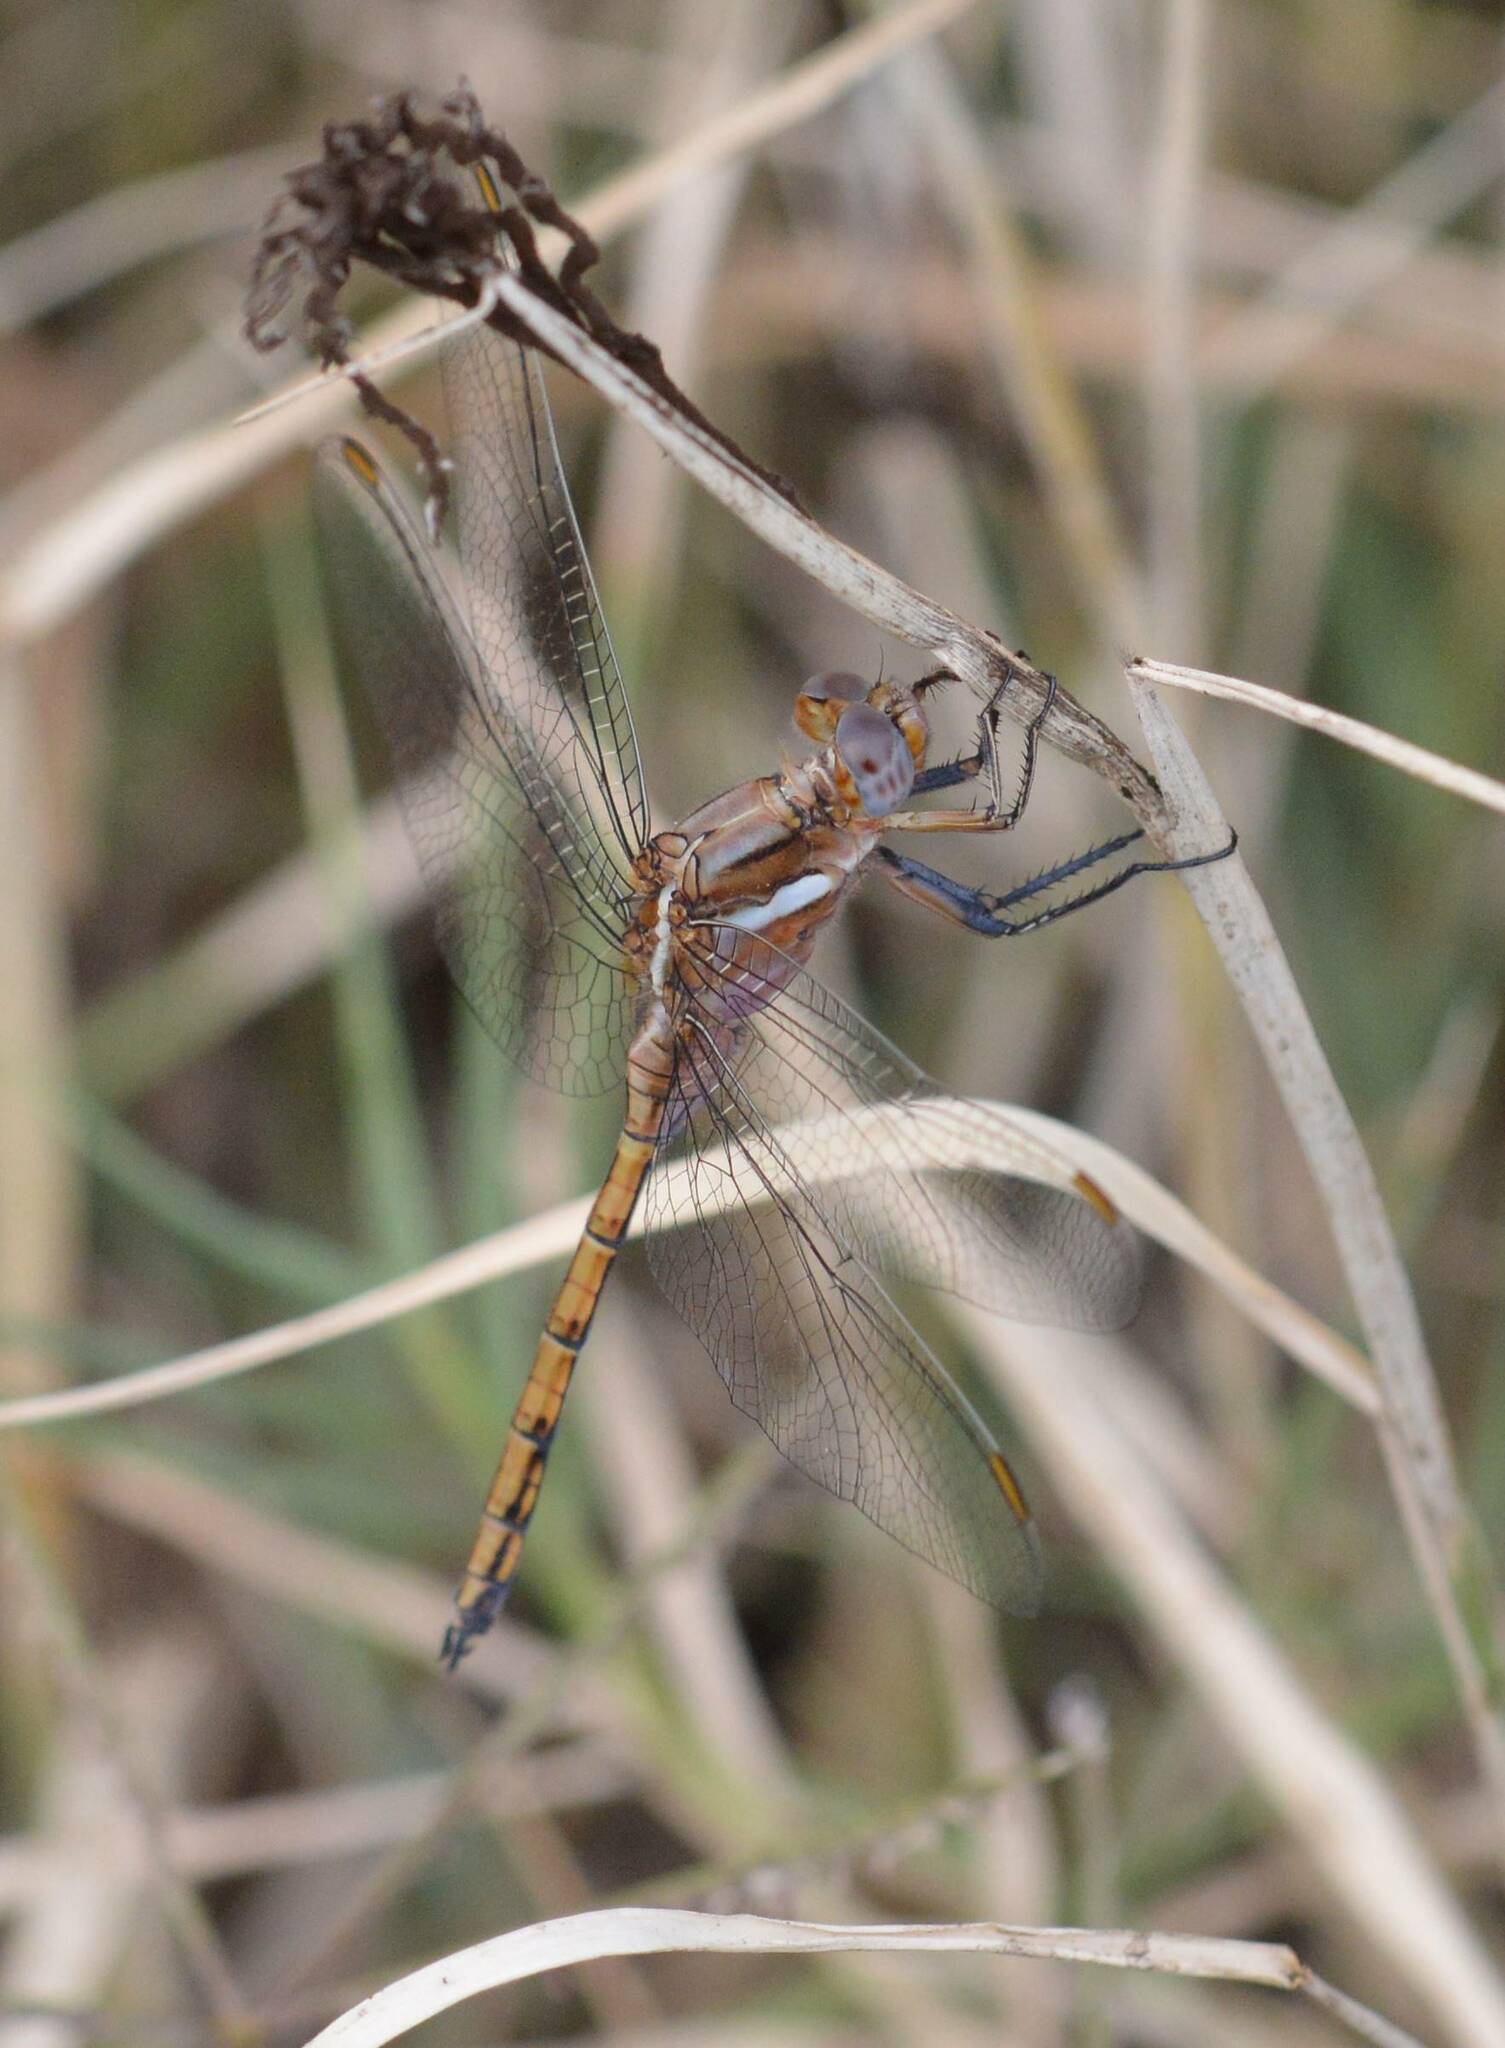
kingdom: Animalia
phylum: Arthropoda
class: Insecta
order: Odonata
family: Libellulidae
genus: Orthetrum
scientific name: Orthetrum chrysostigma
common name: Epaulet skimmer
